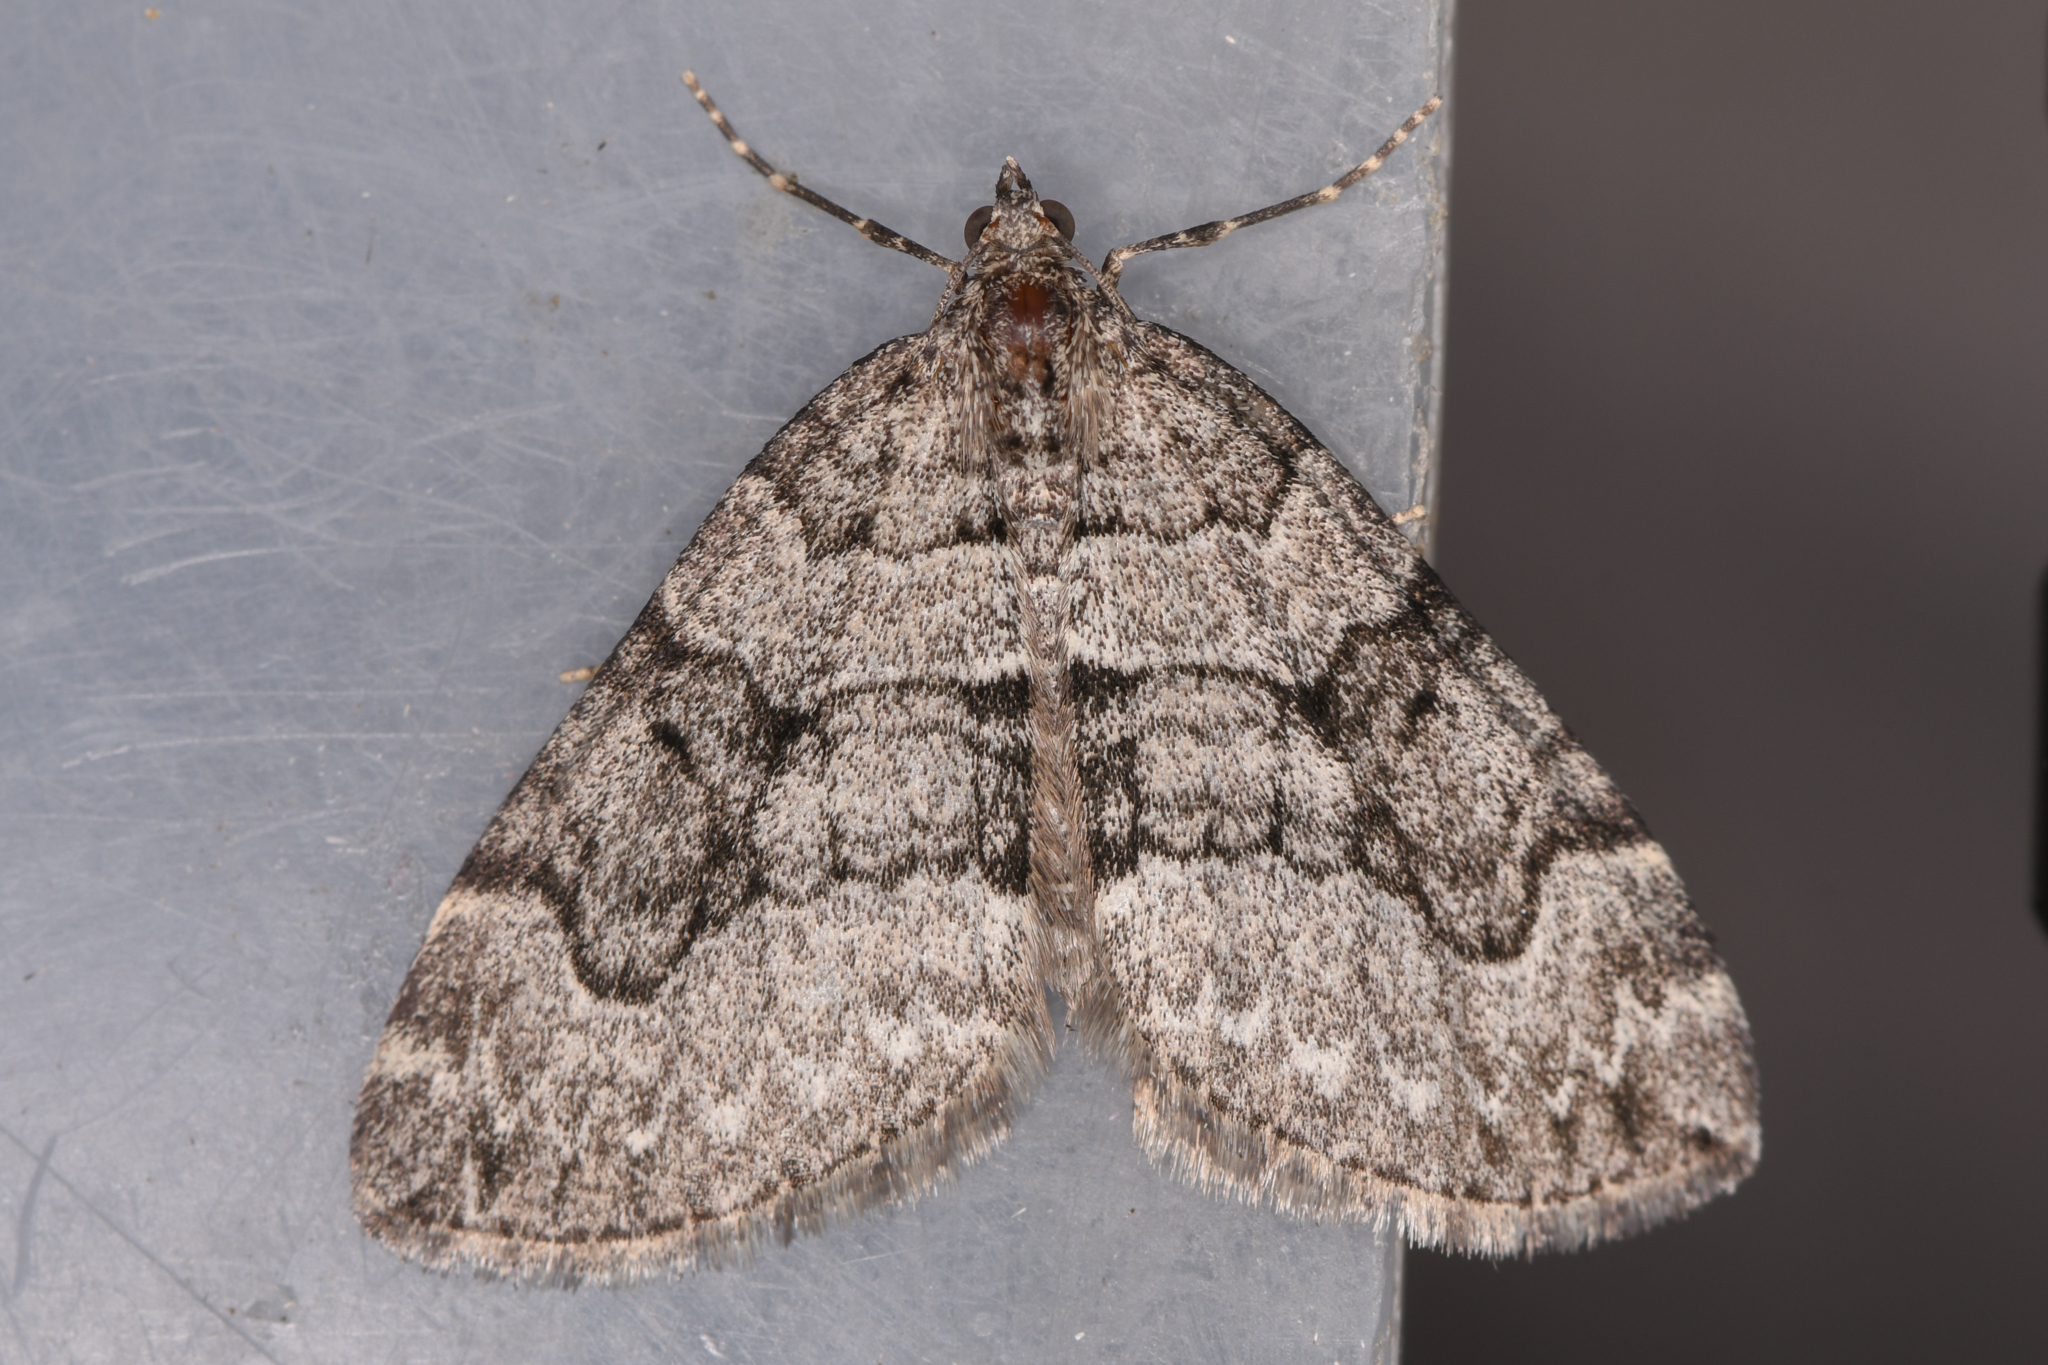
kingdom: Animalia
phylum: Arthropoda
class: Insecta
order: Lepidoptera
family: Geometridae
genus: Thera
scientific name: Thera otisi
